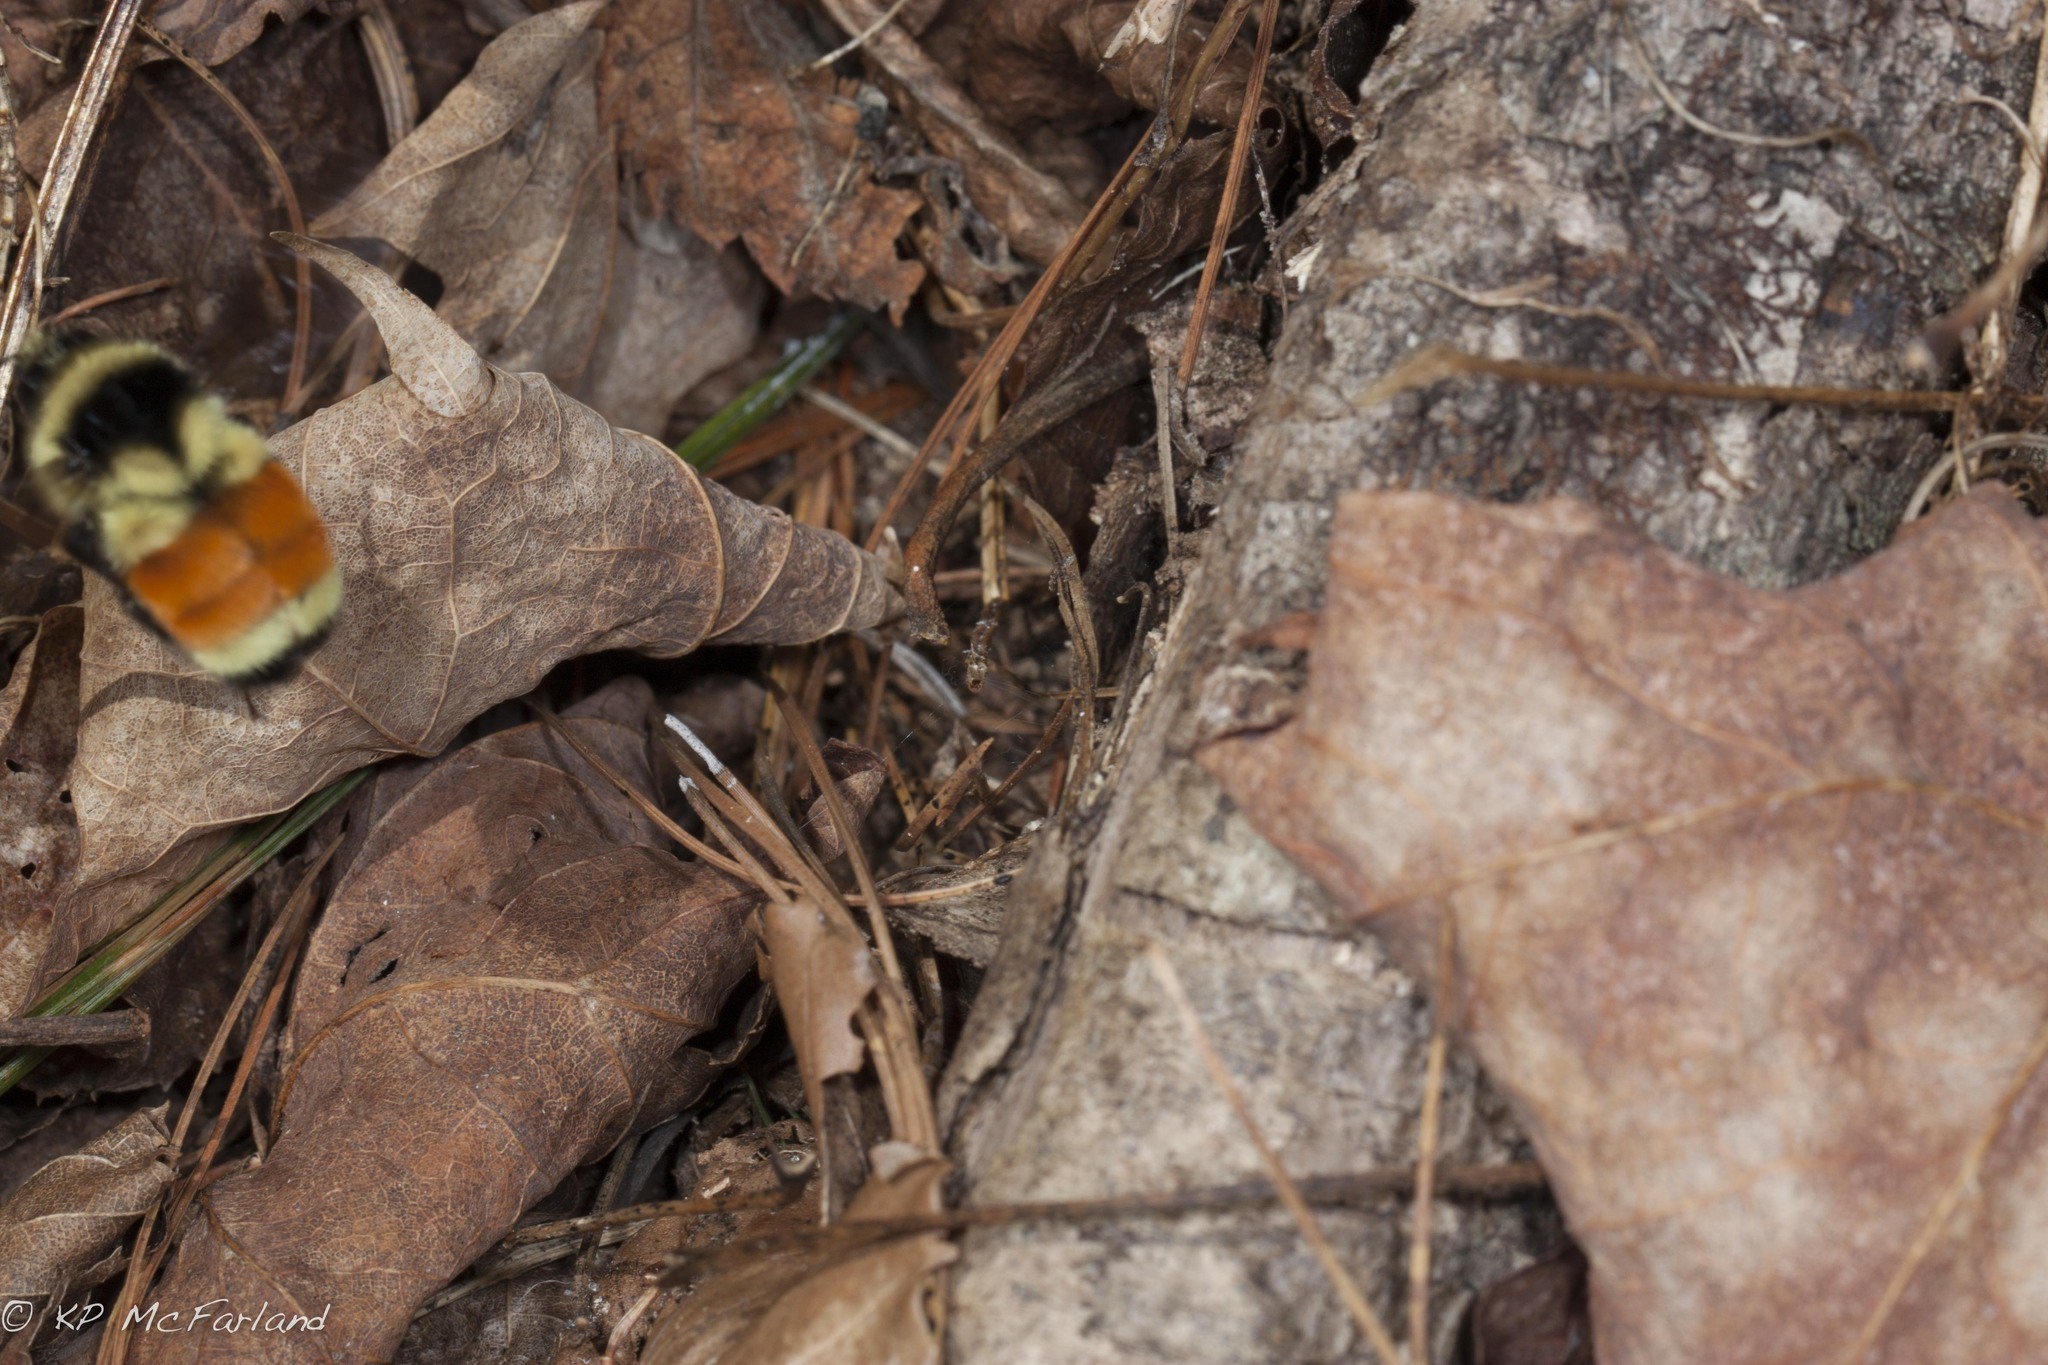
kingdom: Animalia
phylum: Arthropoda
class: Insecta
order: Hymenoptera
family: Apidae
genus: Bombus
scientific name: Bombus ternarius
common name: Tri-colored bumble bee
